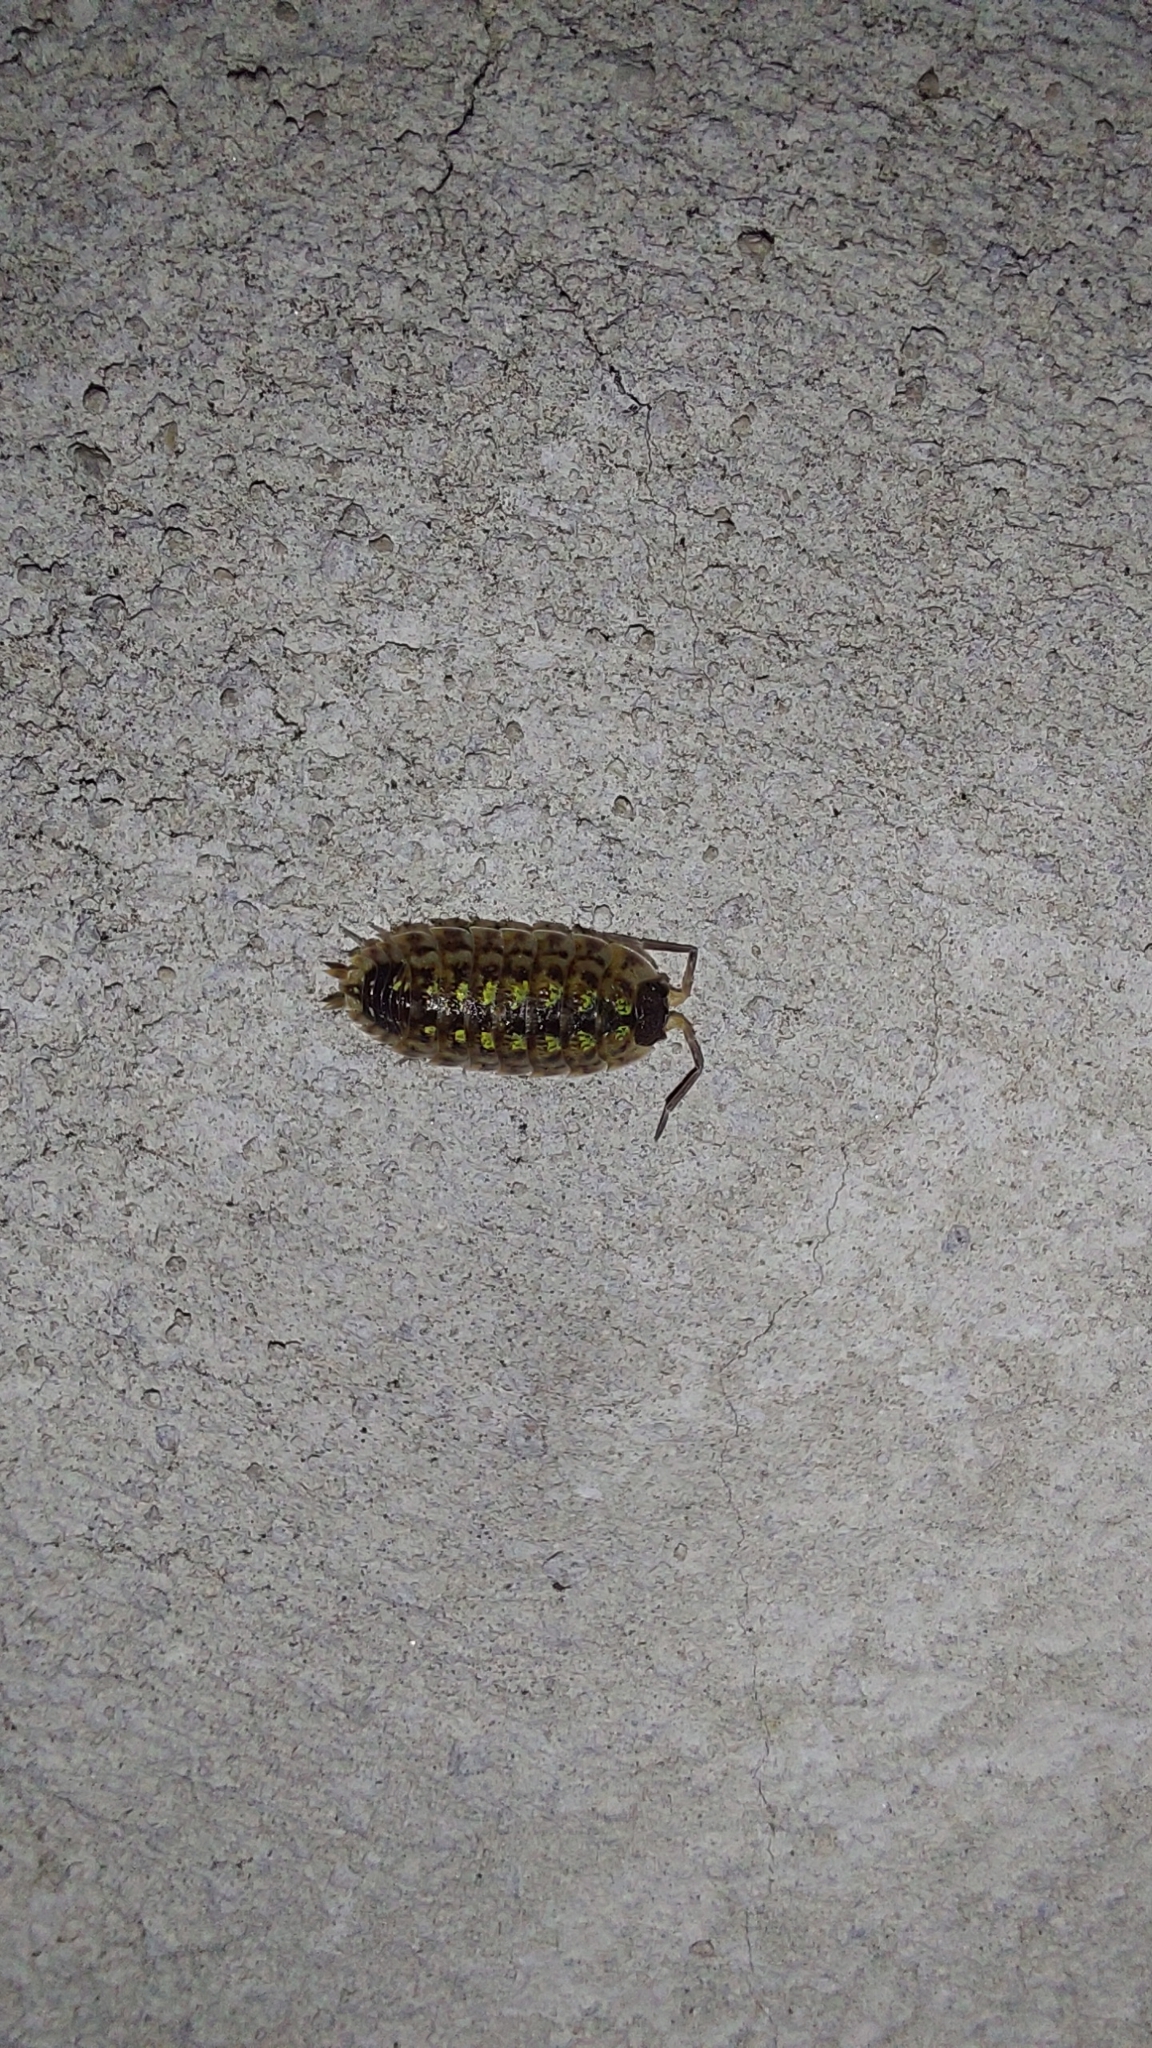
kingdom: Animalia
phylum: Arthropoda
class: Malacostraca
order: Isopoda
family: Porcellionidae
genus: Porcellio
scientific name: Porcellio spinicornis
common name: Painted woodlouse
